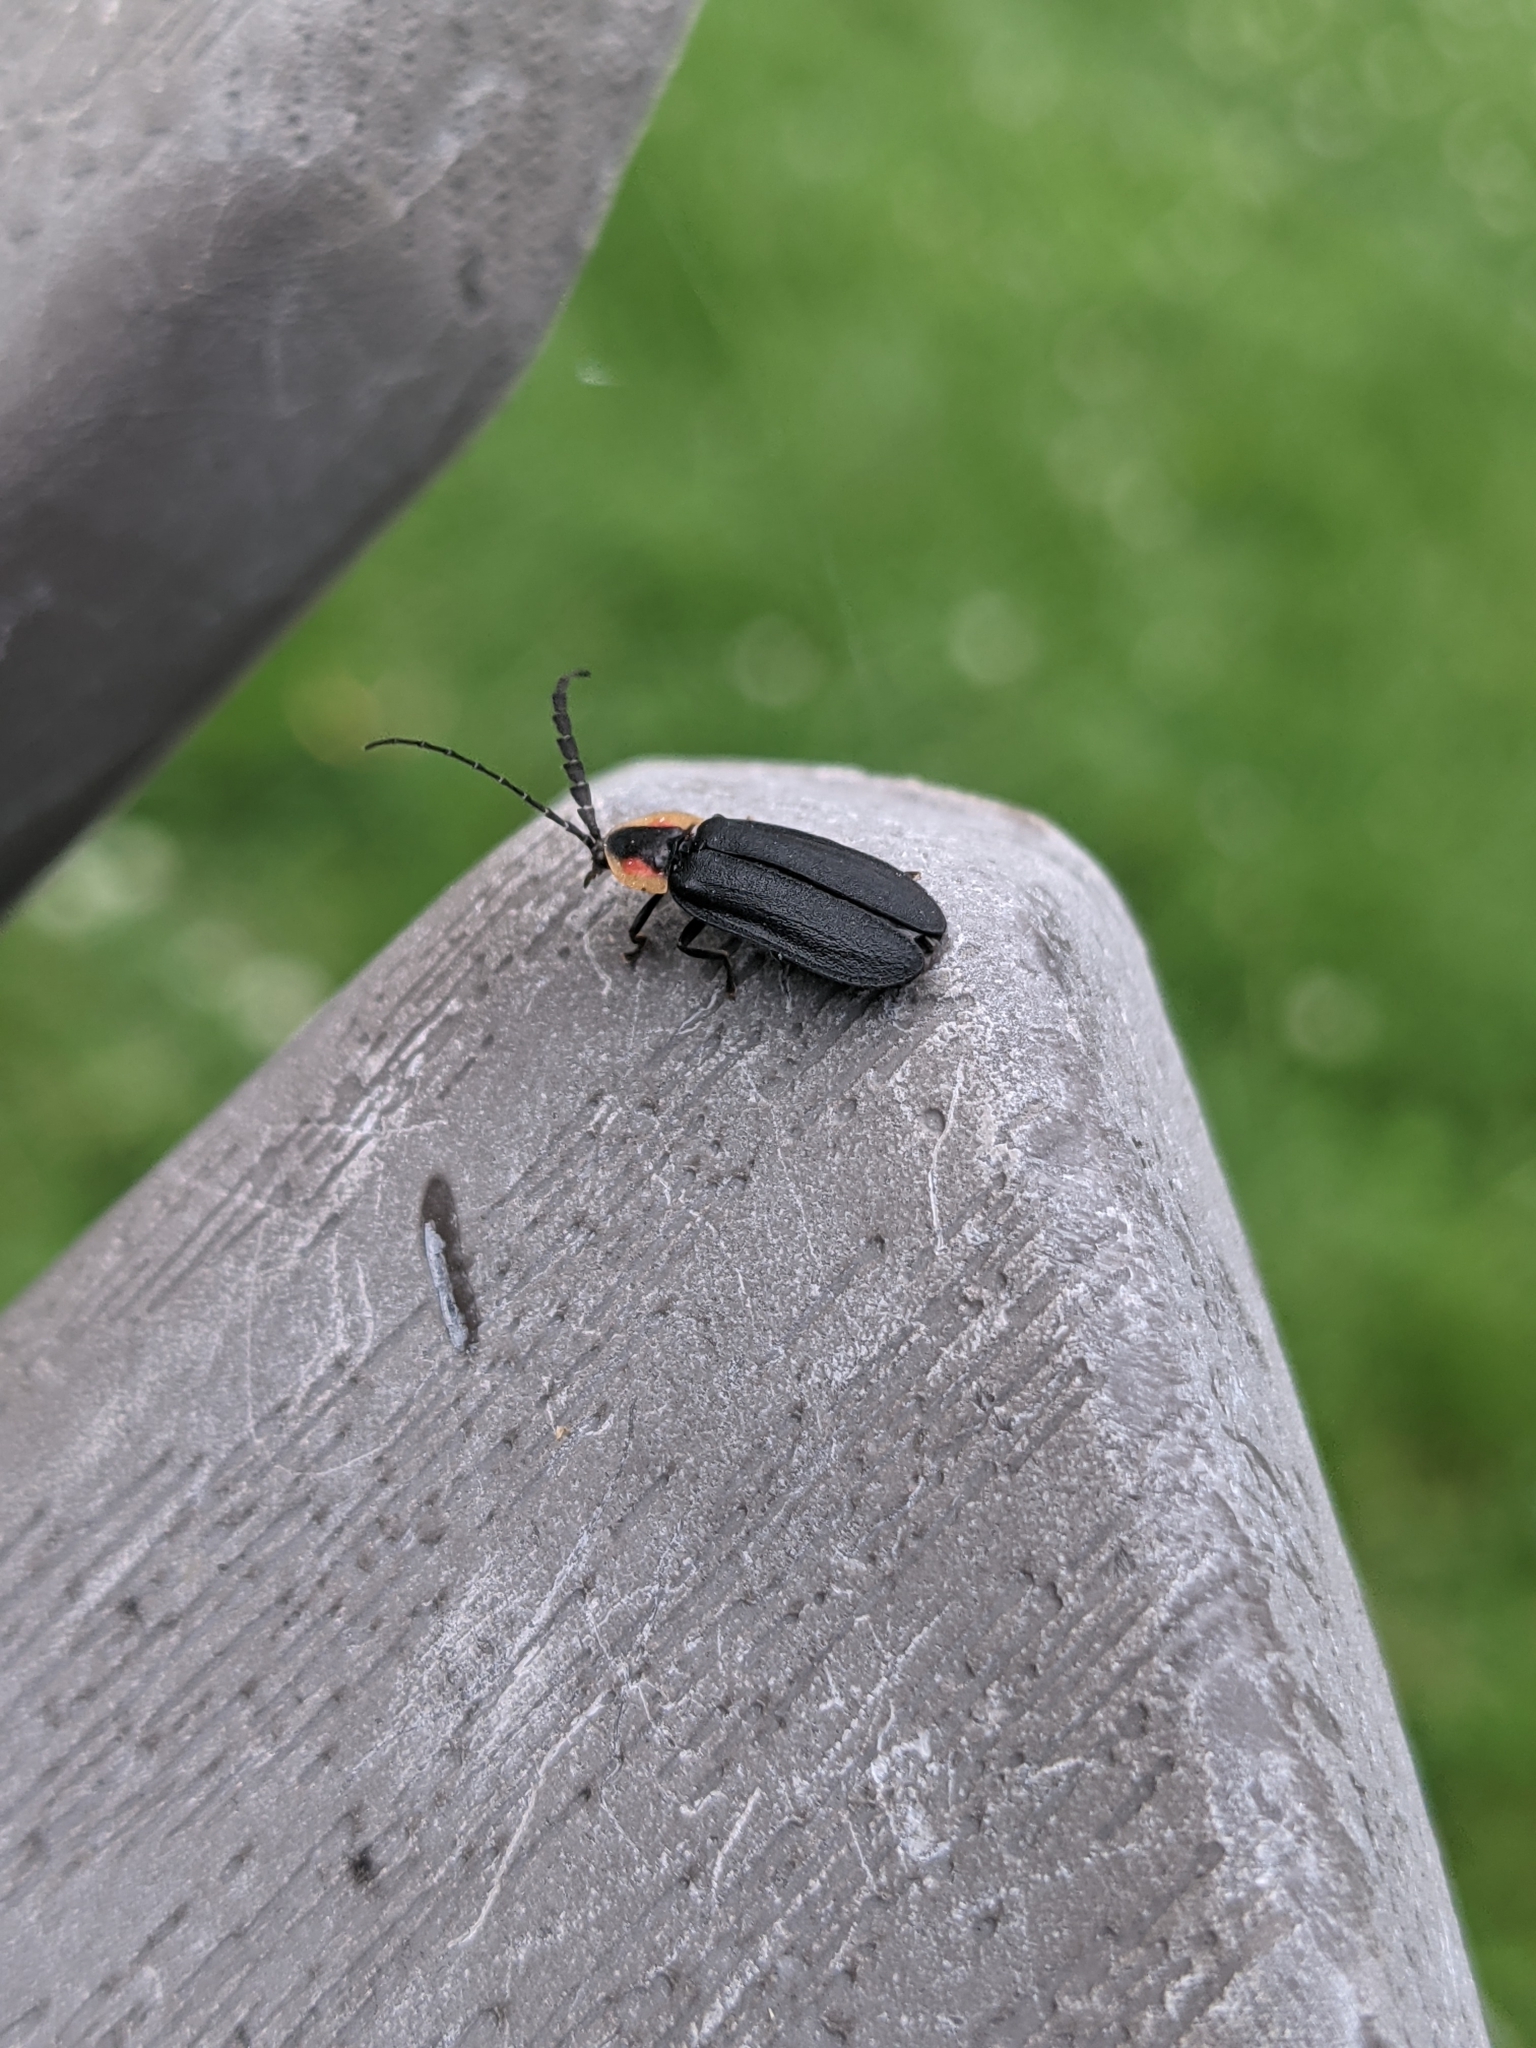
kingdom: Animalia
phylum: Arthropoda
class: Insecta
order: Coleoptera
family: Lampyridae
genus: Lucidota
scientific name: Lucidota atra
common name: Black firefly
